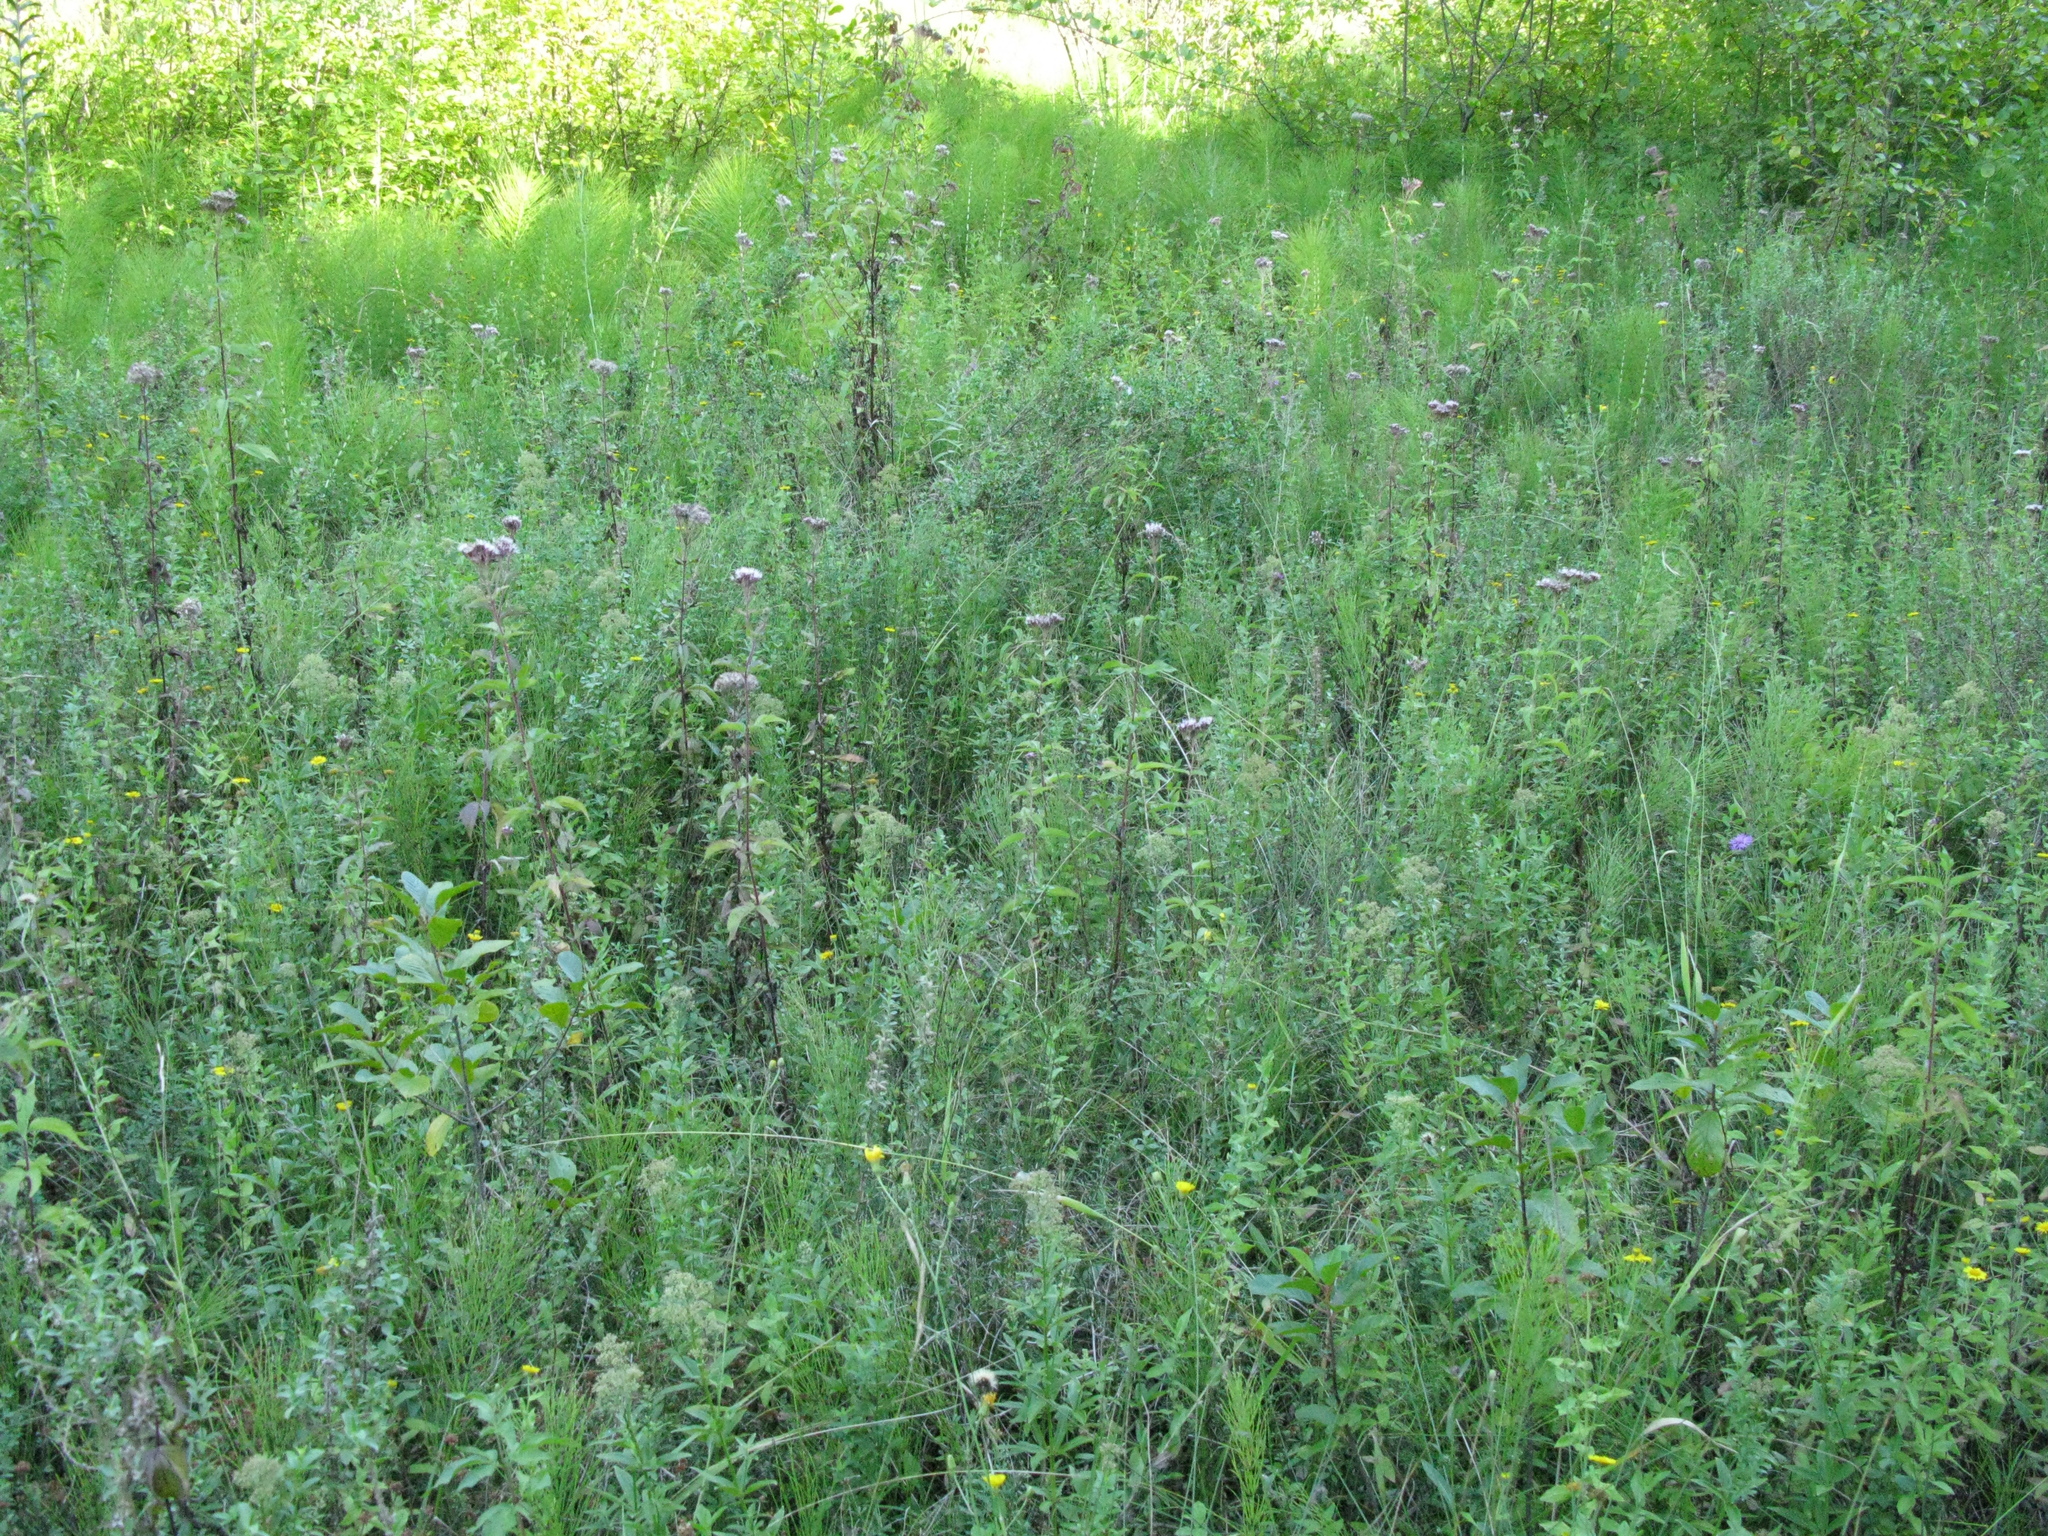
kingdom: Plantae
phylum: Tracheophyta
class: Magnoliopsida
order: Gentianales
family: Rubiaceae
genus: Galium
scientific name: Galium rubioides
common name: European bedstraw
